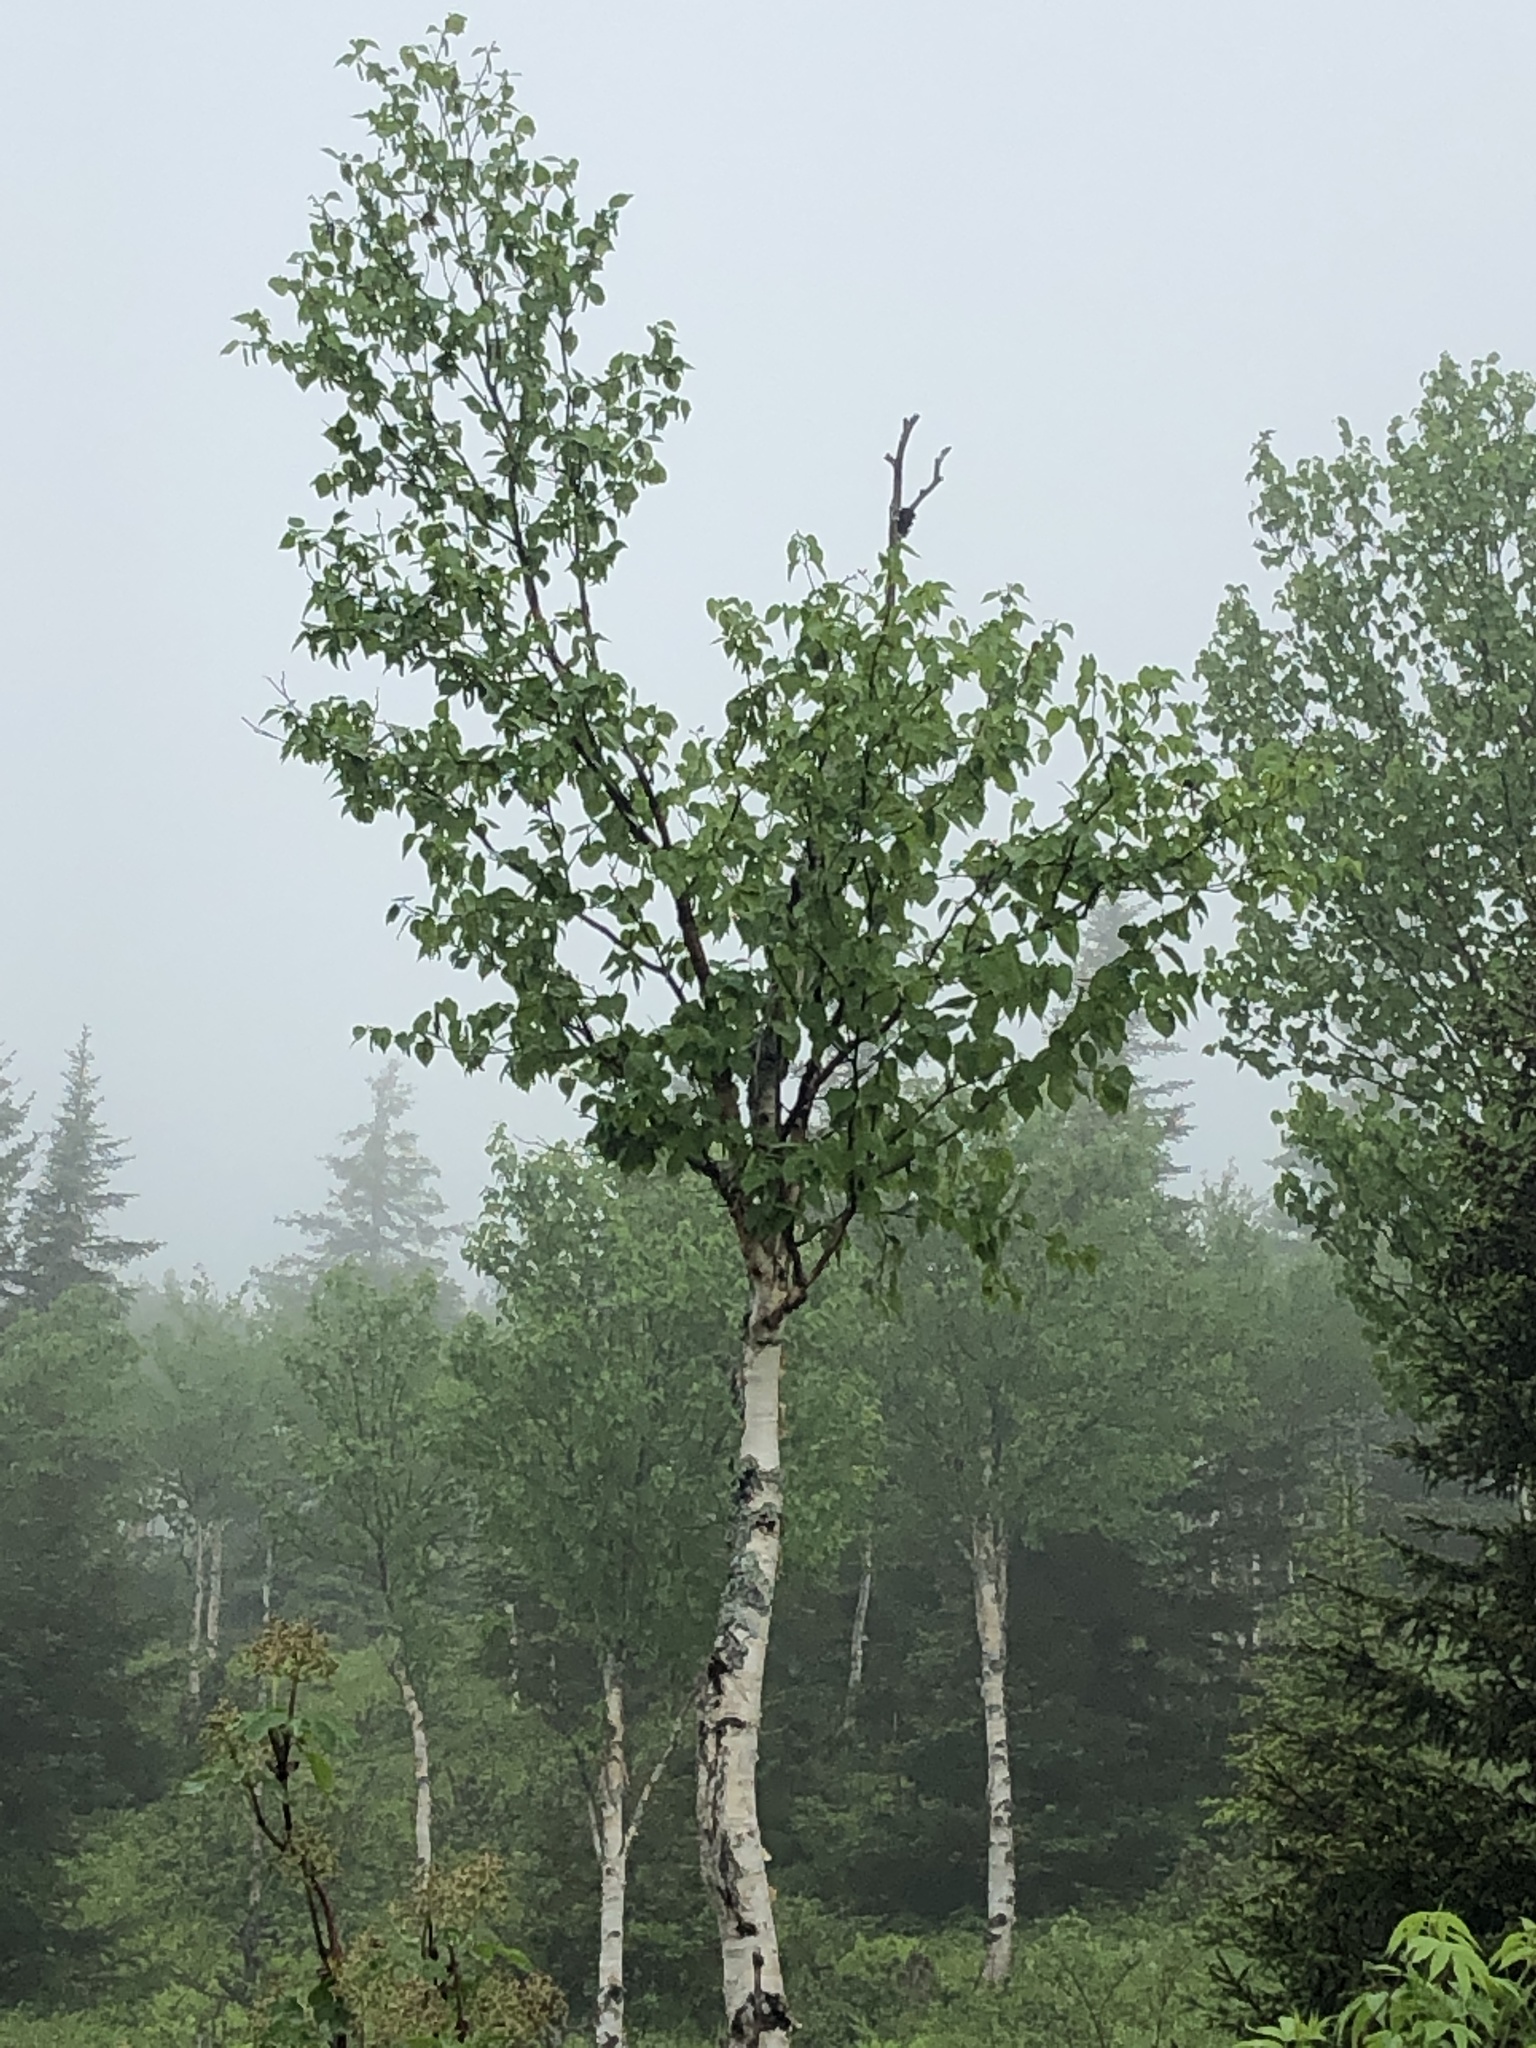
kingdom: Plantae
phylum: Tracheophyta
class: Magnoliopsida
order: Fagales
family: Betulaceae
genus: Betula
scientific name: Betula papyrifera
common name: Paper birch
